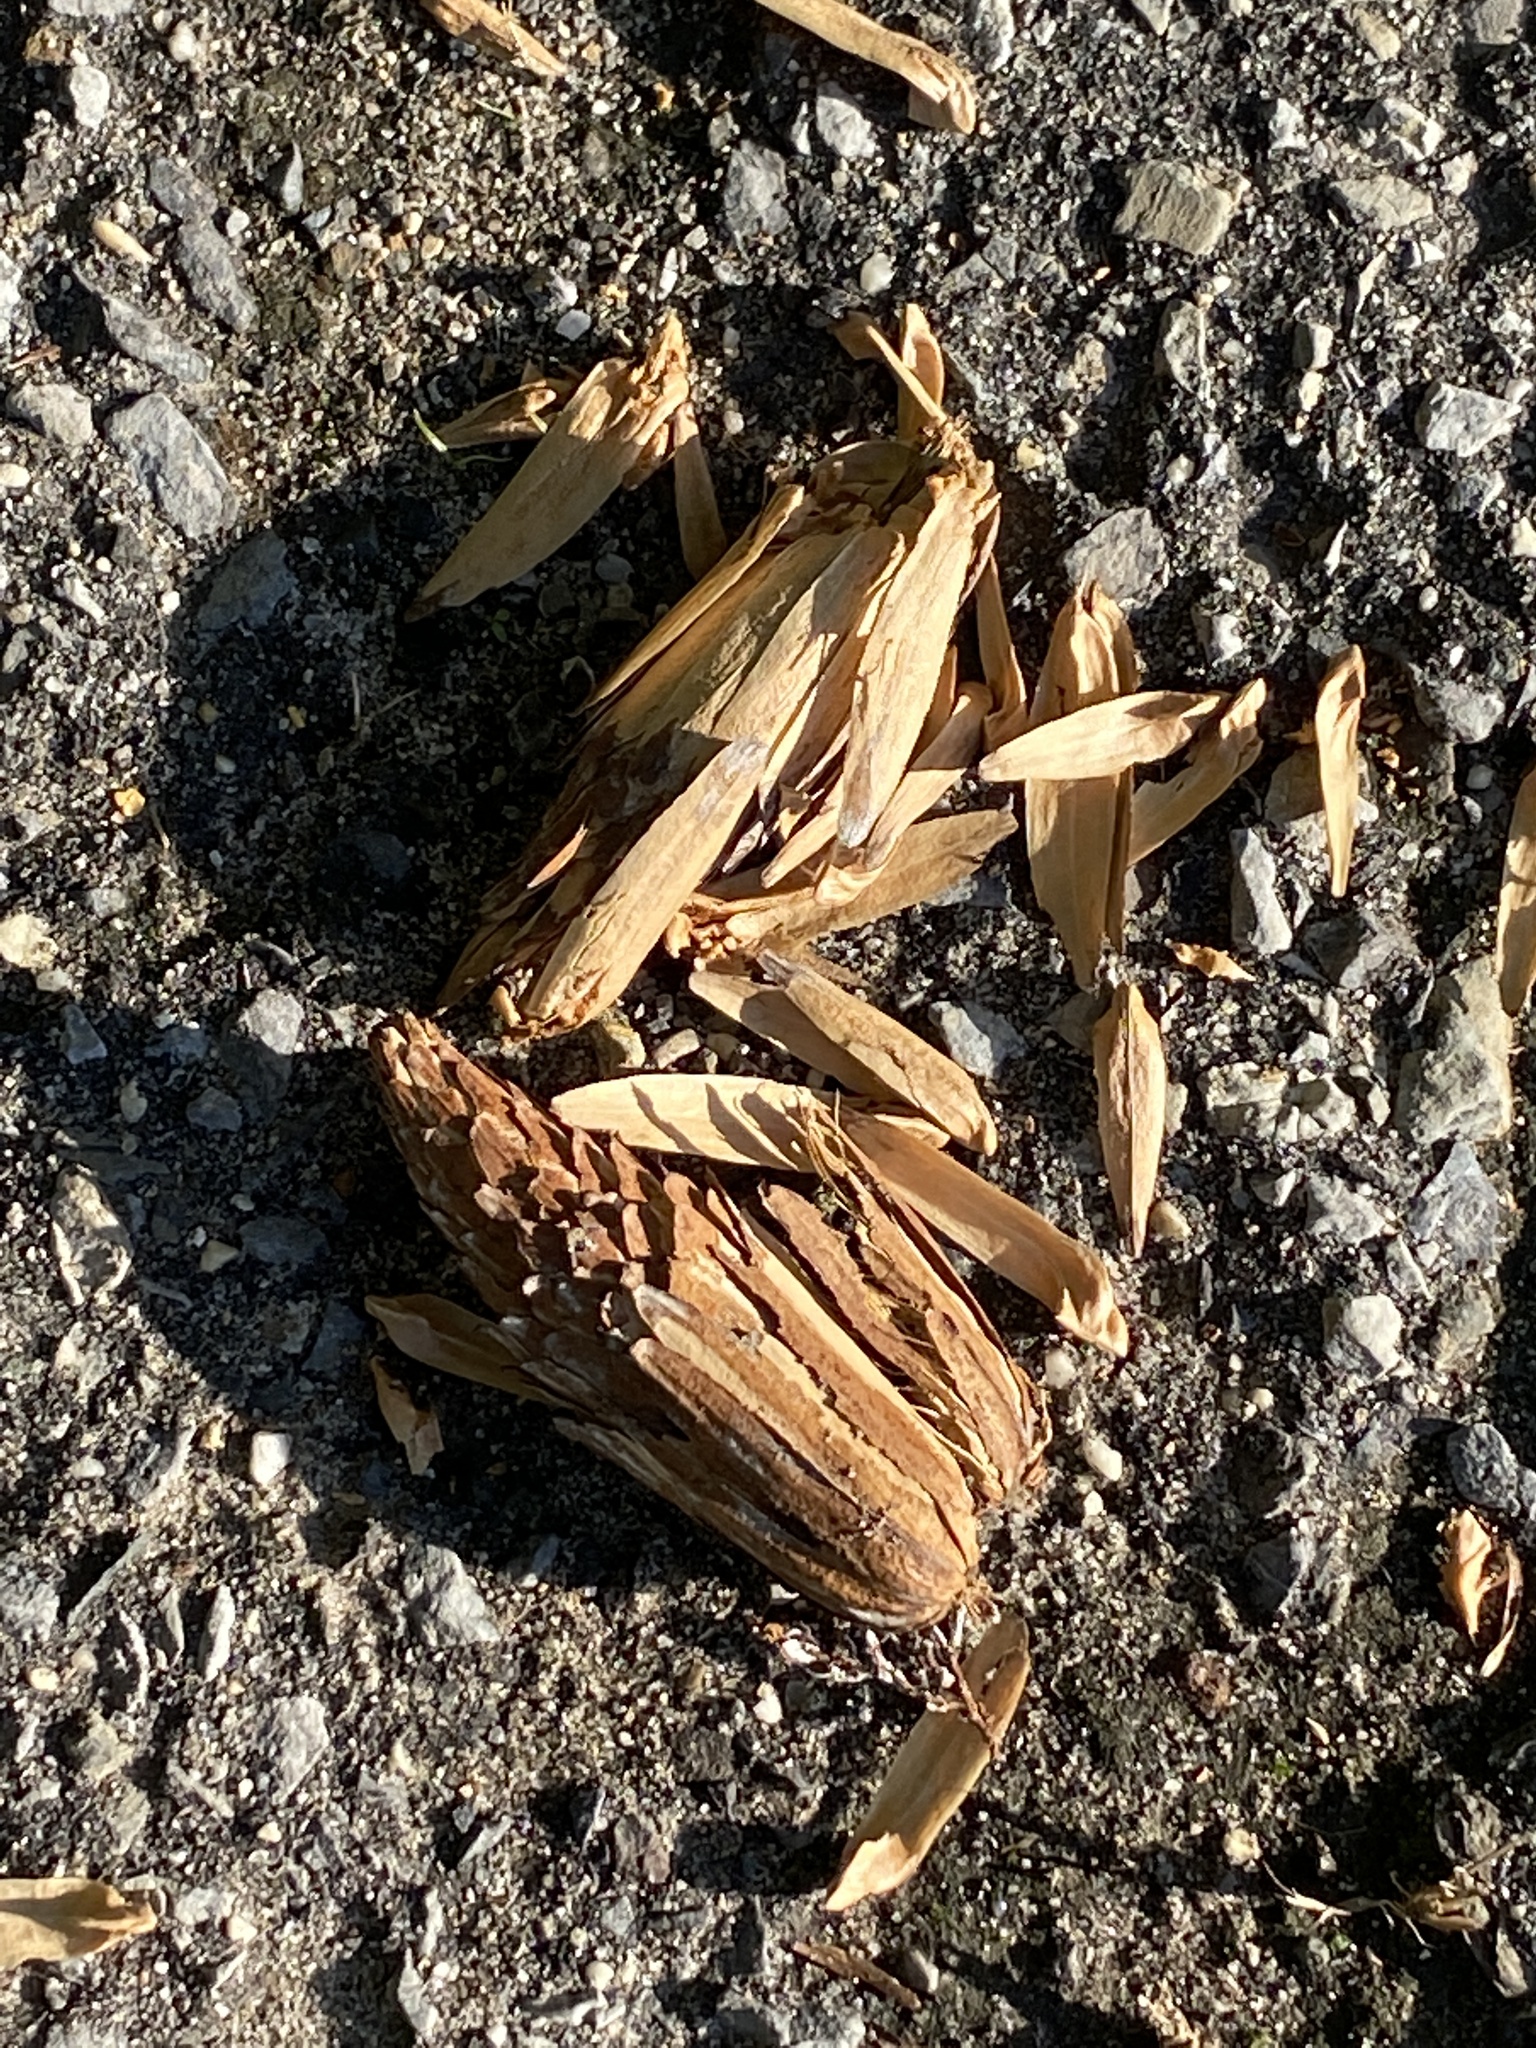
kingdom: Plantae
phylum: Tracheophyta
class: Magnoliopsida
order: Magnoliales
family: Magnoliaceae
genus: Liriodendron
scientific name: Liriodendron tulipifera
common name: Tulip tree
